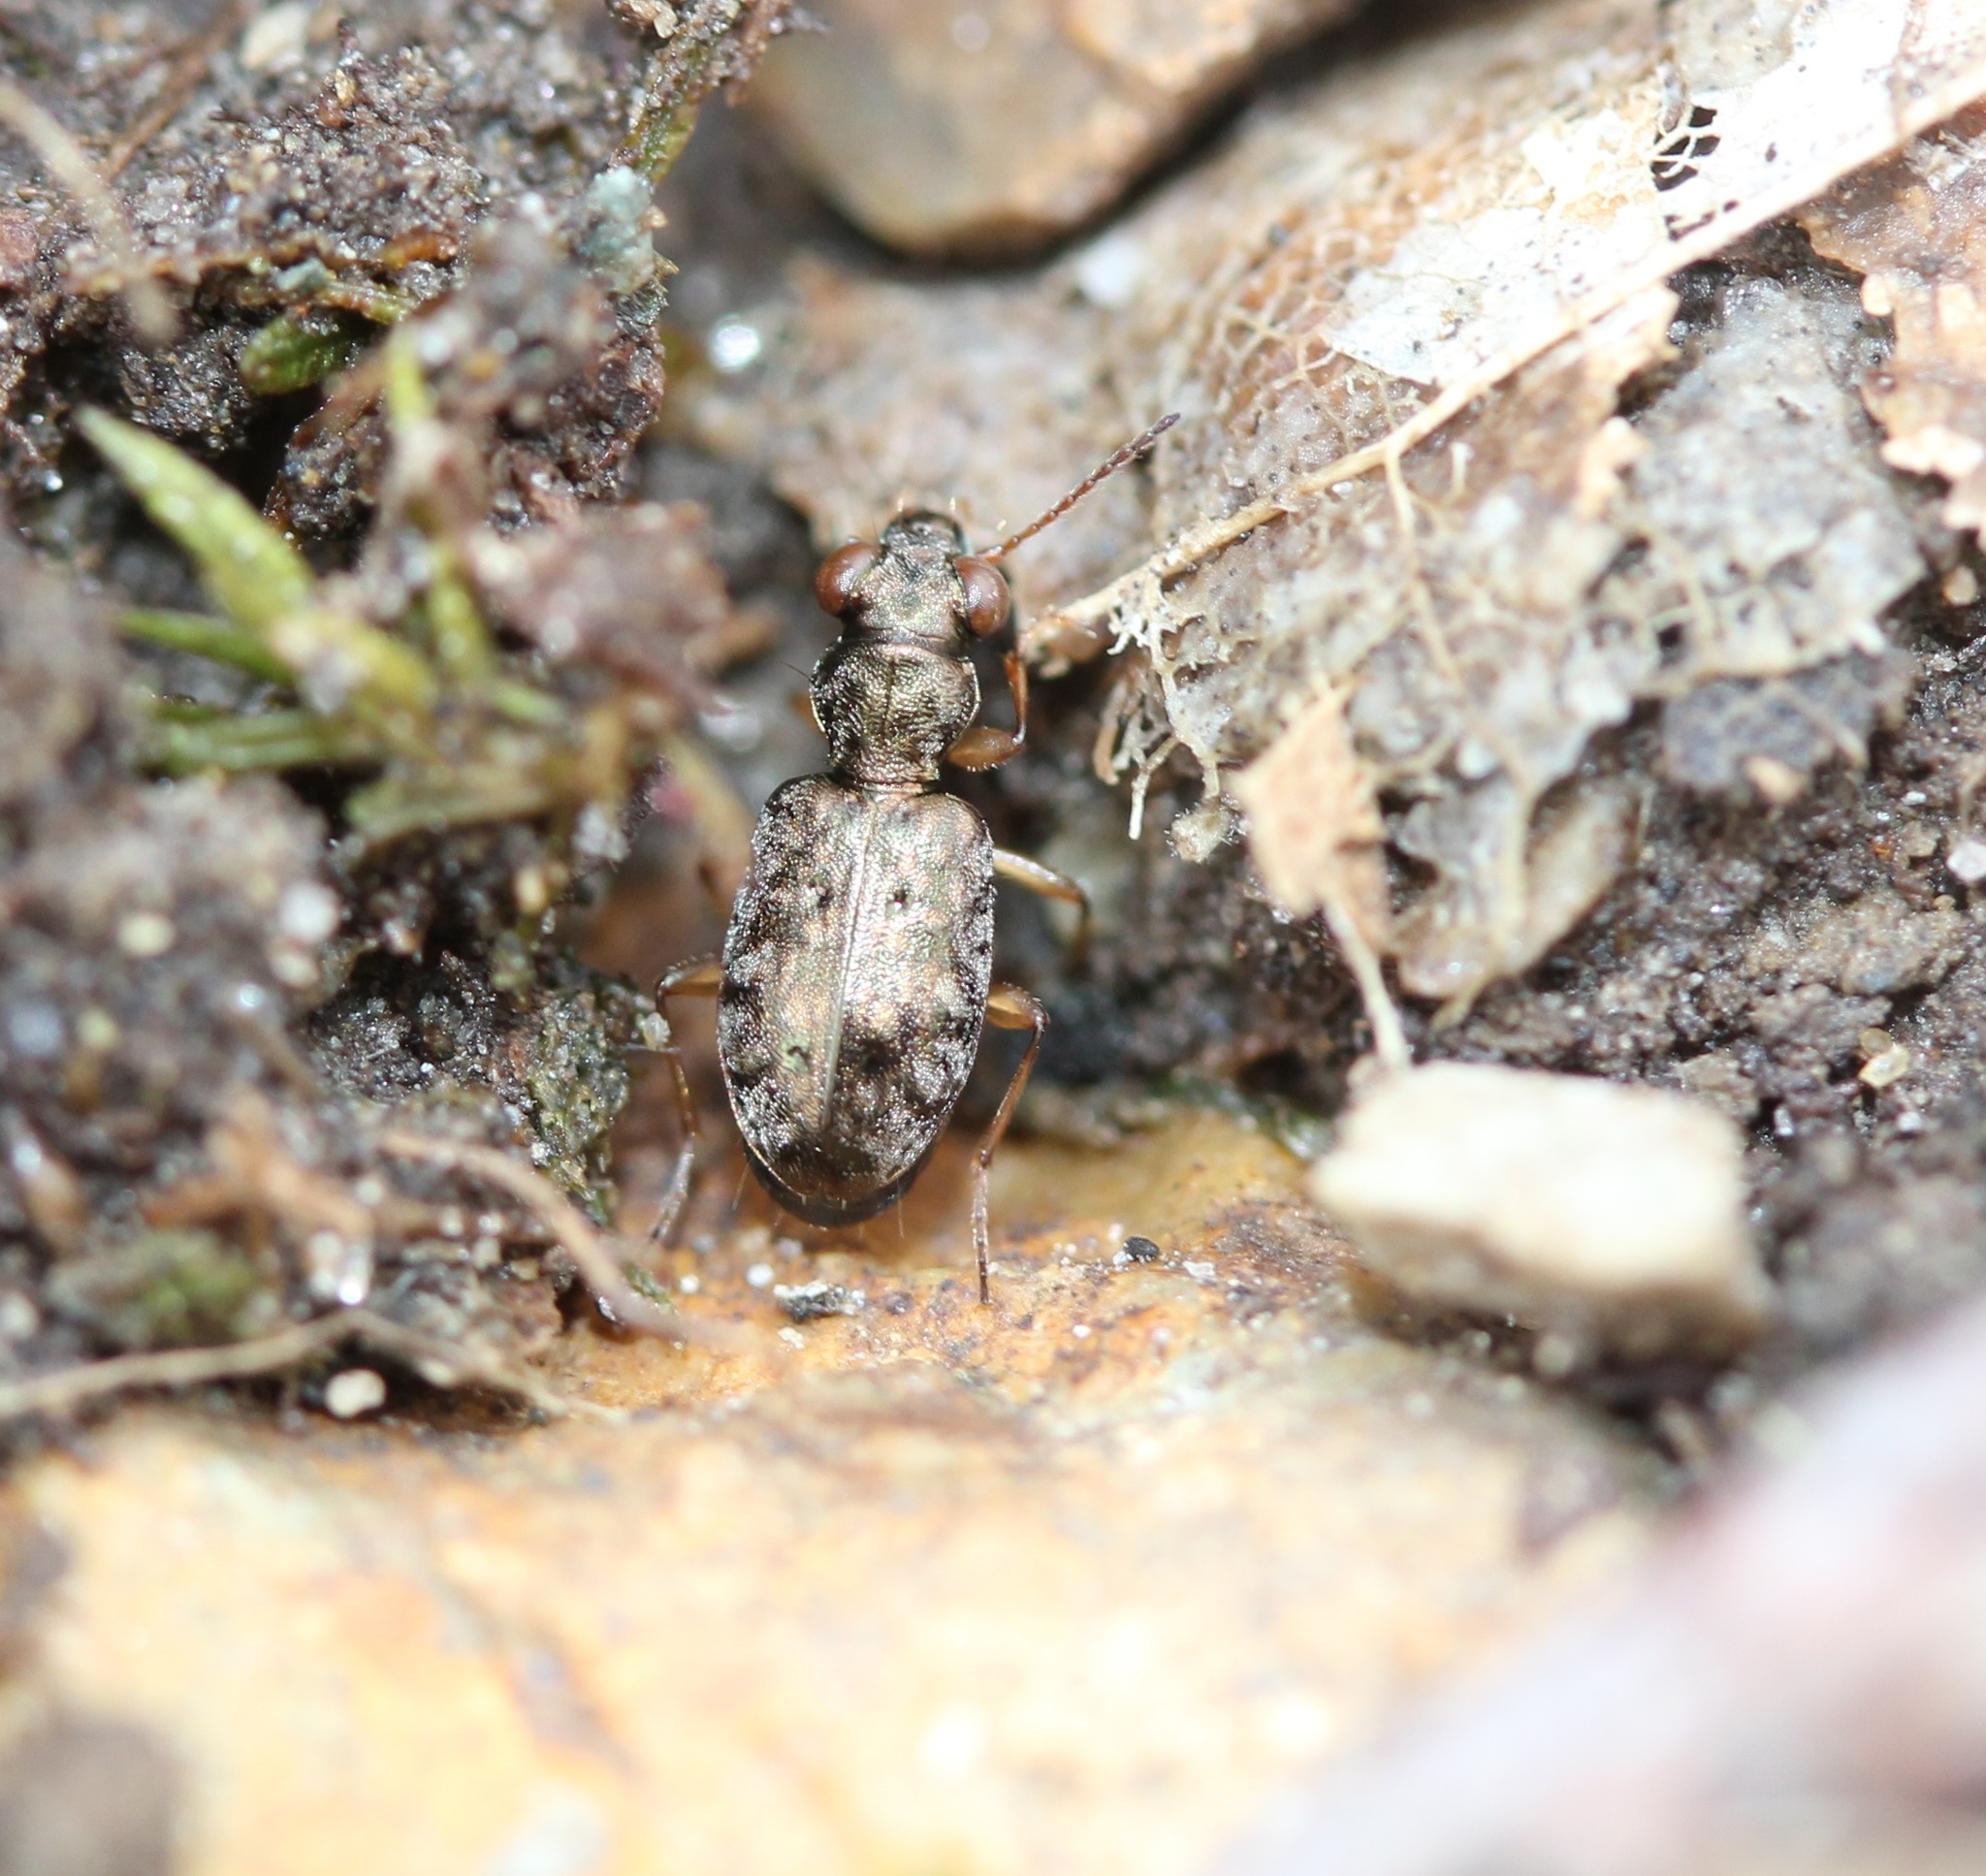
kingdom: Animalia
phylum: Arthropoda
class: Insecta
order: Coleoptera
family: Carabidae
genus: Asaphidion
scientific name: Asaphidion curtum
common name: Ground beetle
